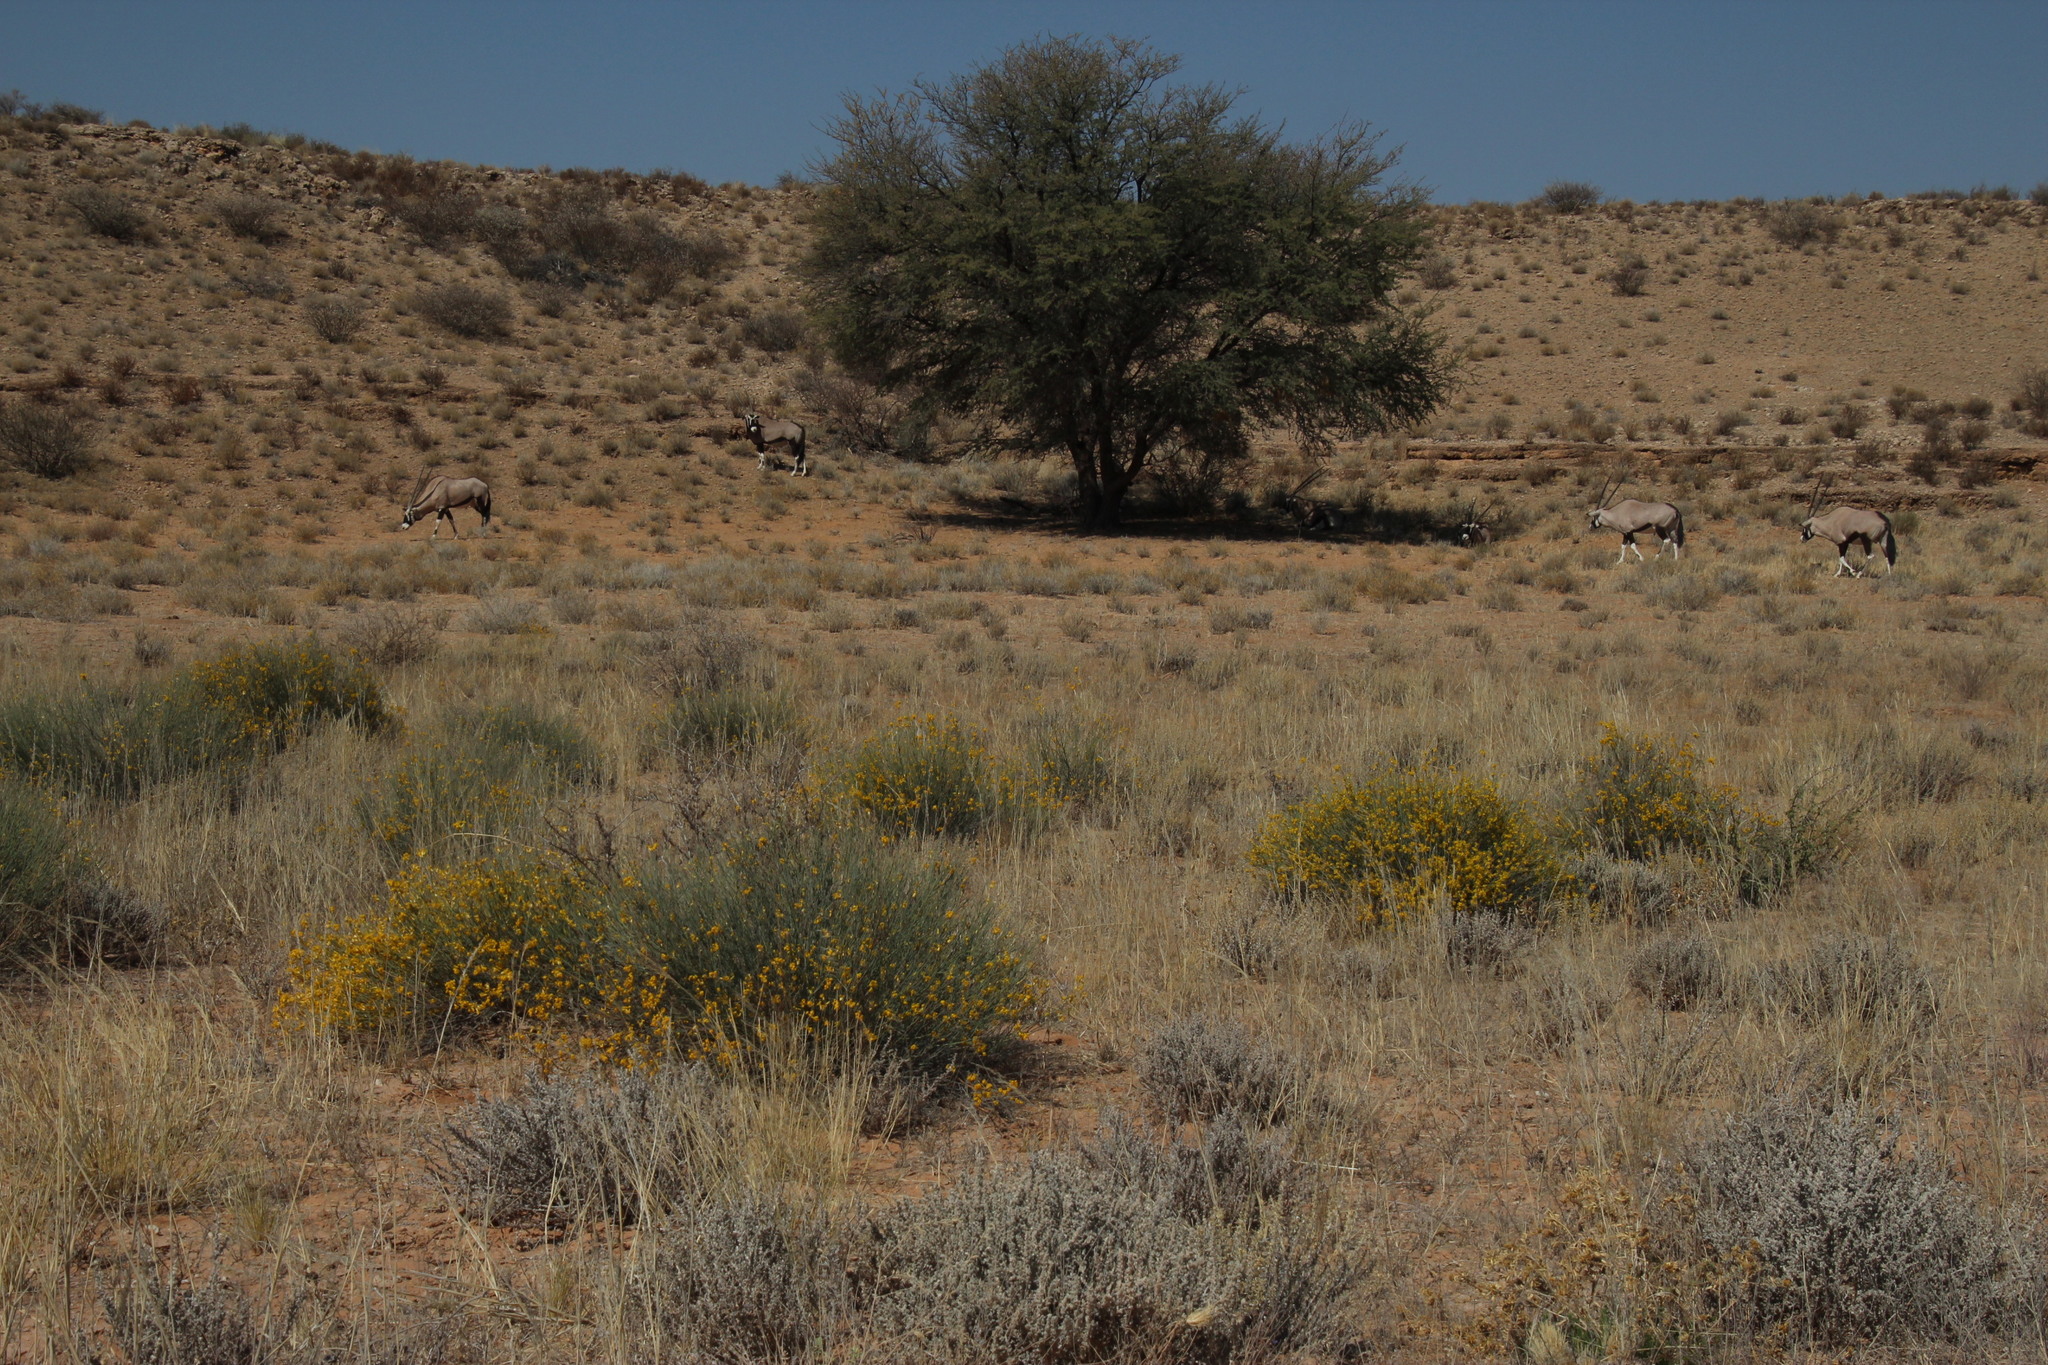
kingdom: Animalia
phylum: Chordata
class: Mammalia
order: Artiodactyla
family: Bovidae
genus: Oryx
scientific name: Oryx gazella
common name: Gemsbok
